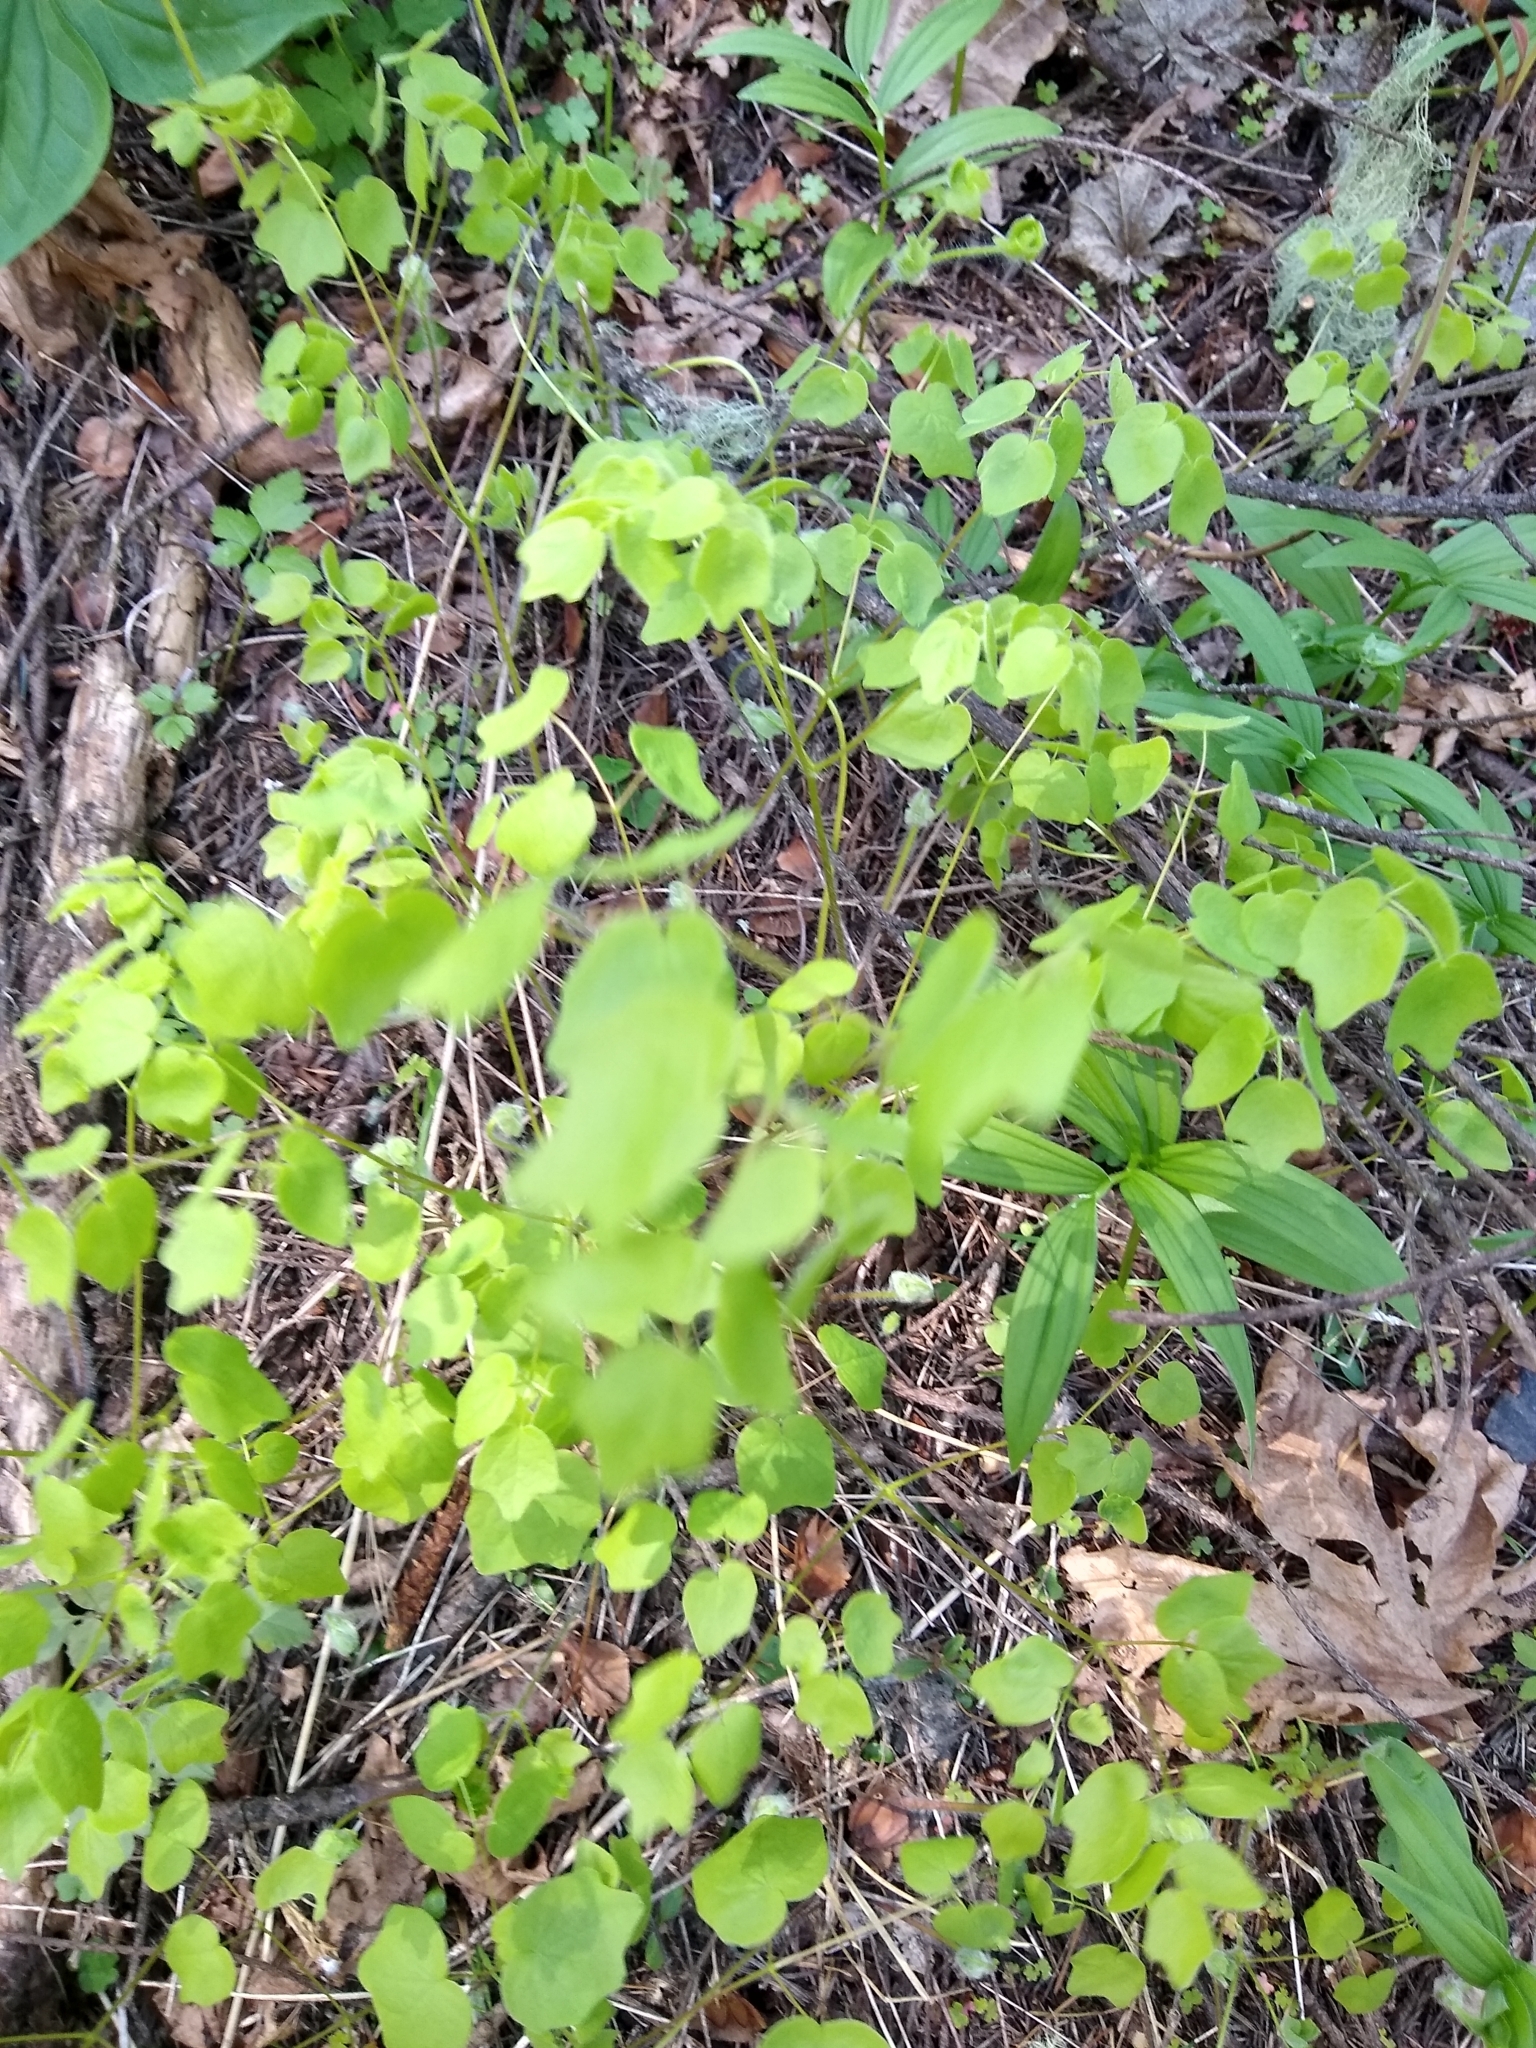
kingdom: Plantae
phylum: Tracheophyta
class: Magnoliopsida
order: Ranunculales
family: Berberidaceae
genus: Vancouveria
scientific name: Vancouveria hexandra
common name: Northern inside-out-flower
